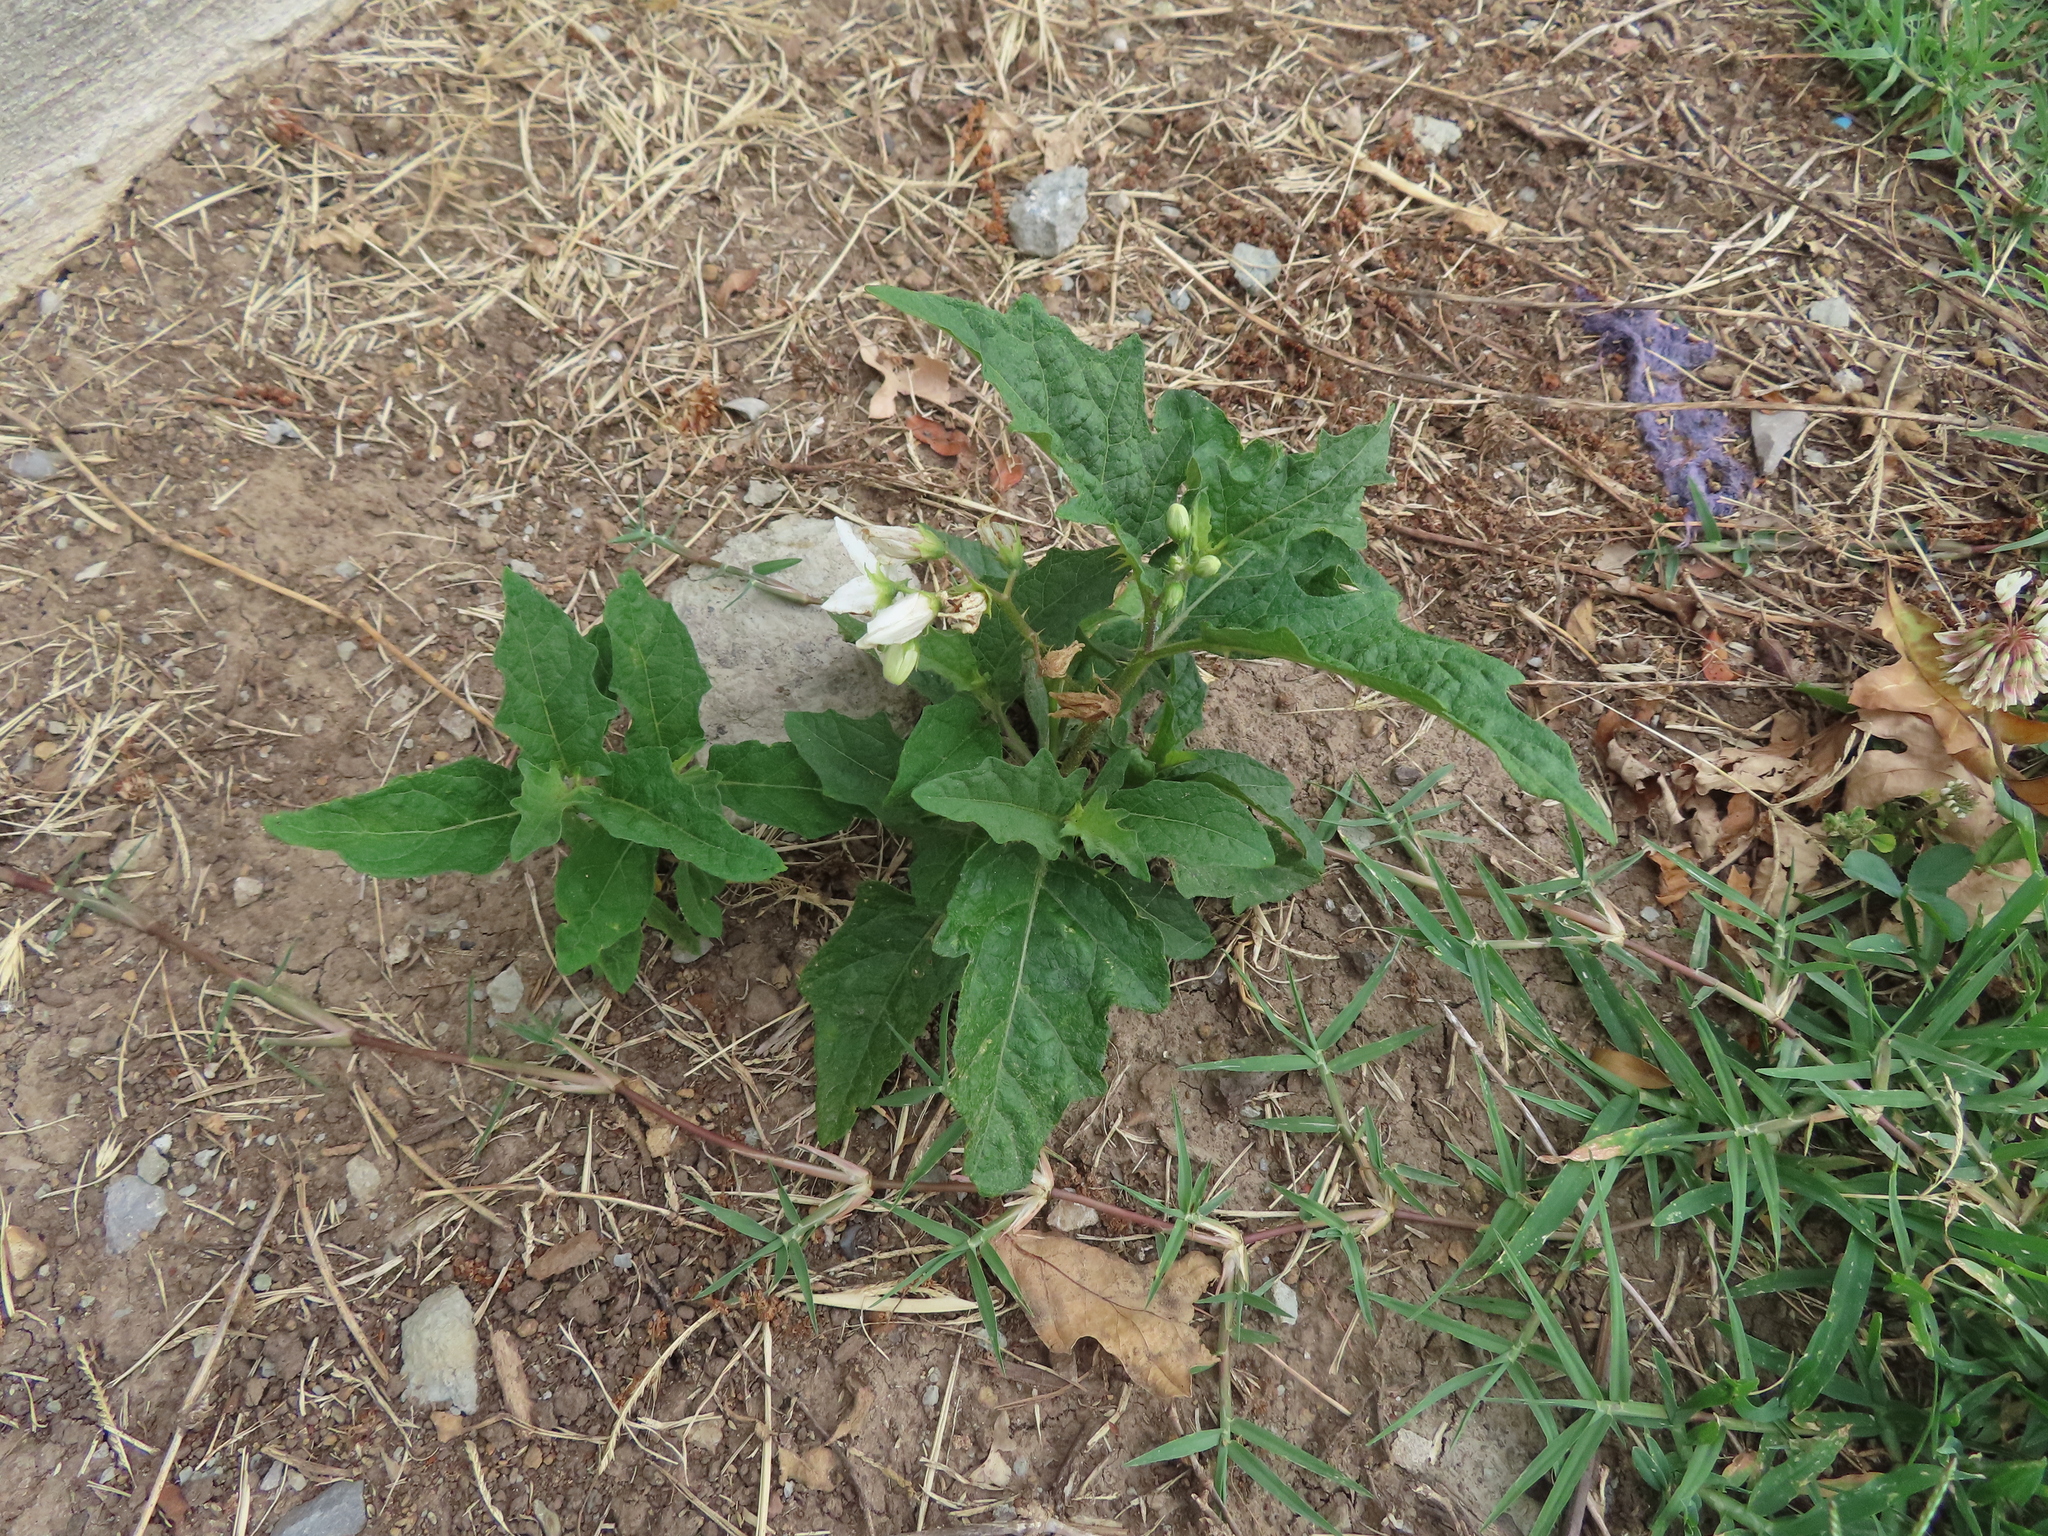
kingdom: Plantae
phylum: Tracheophyta
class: Magnoliopsida
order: Solanales
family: Solanaceae
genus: Solanum
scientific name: Solanum carolinense
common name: Horse-nettle
